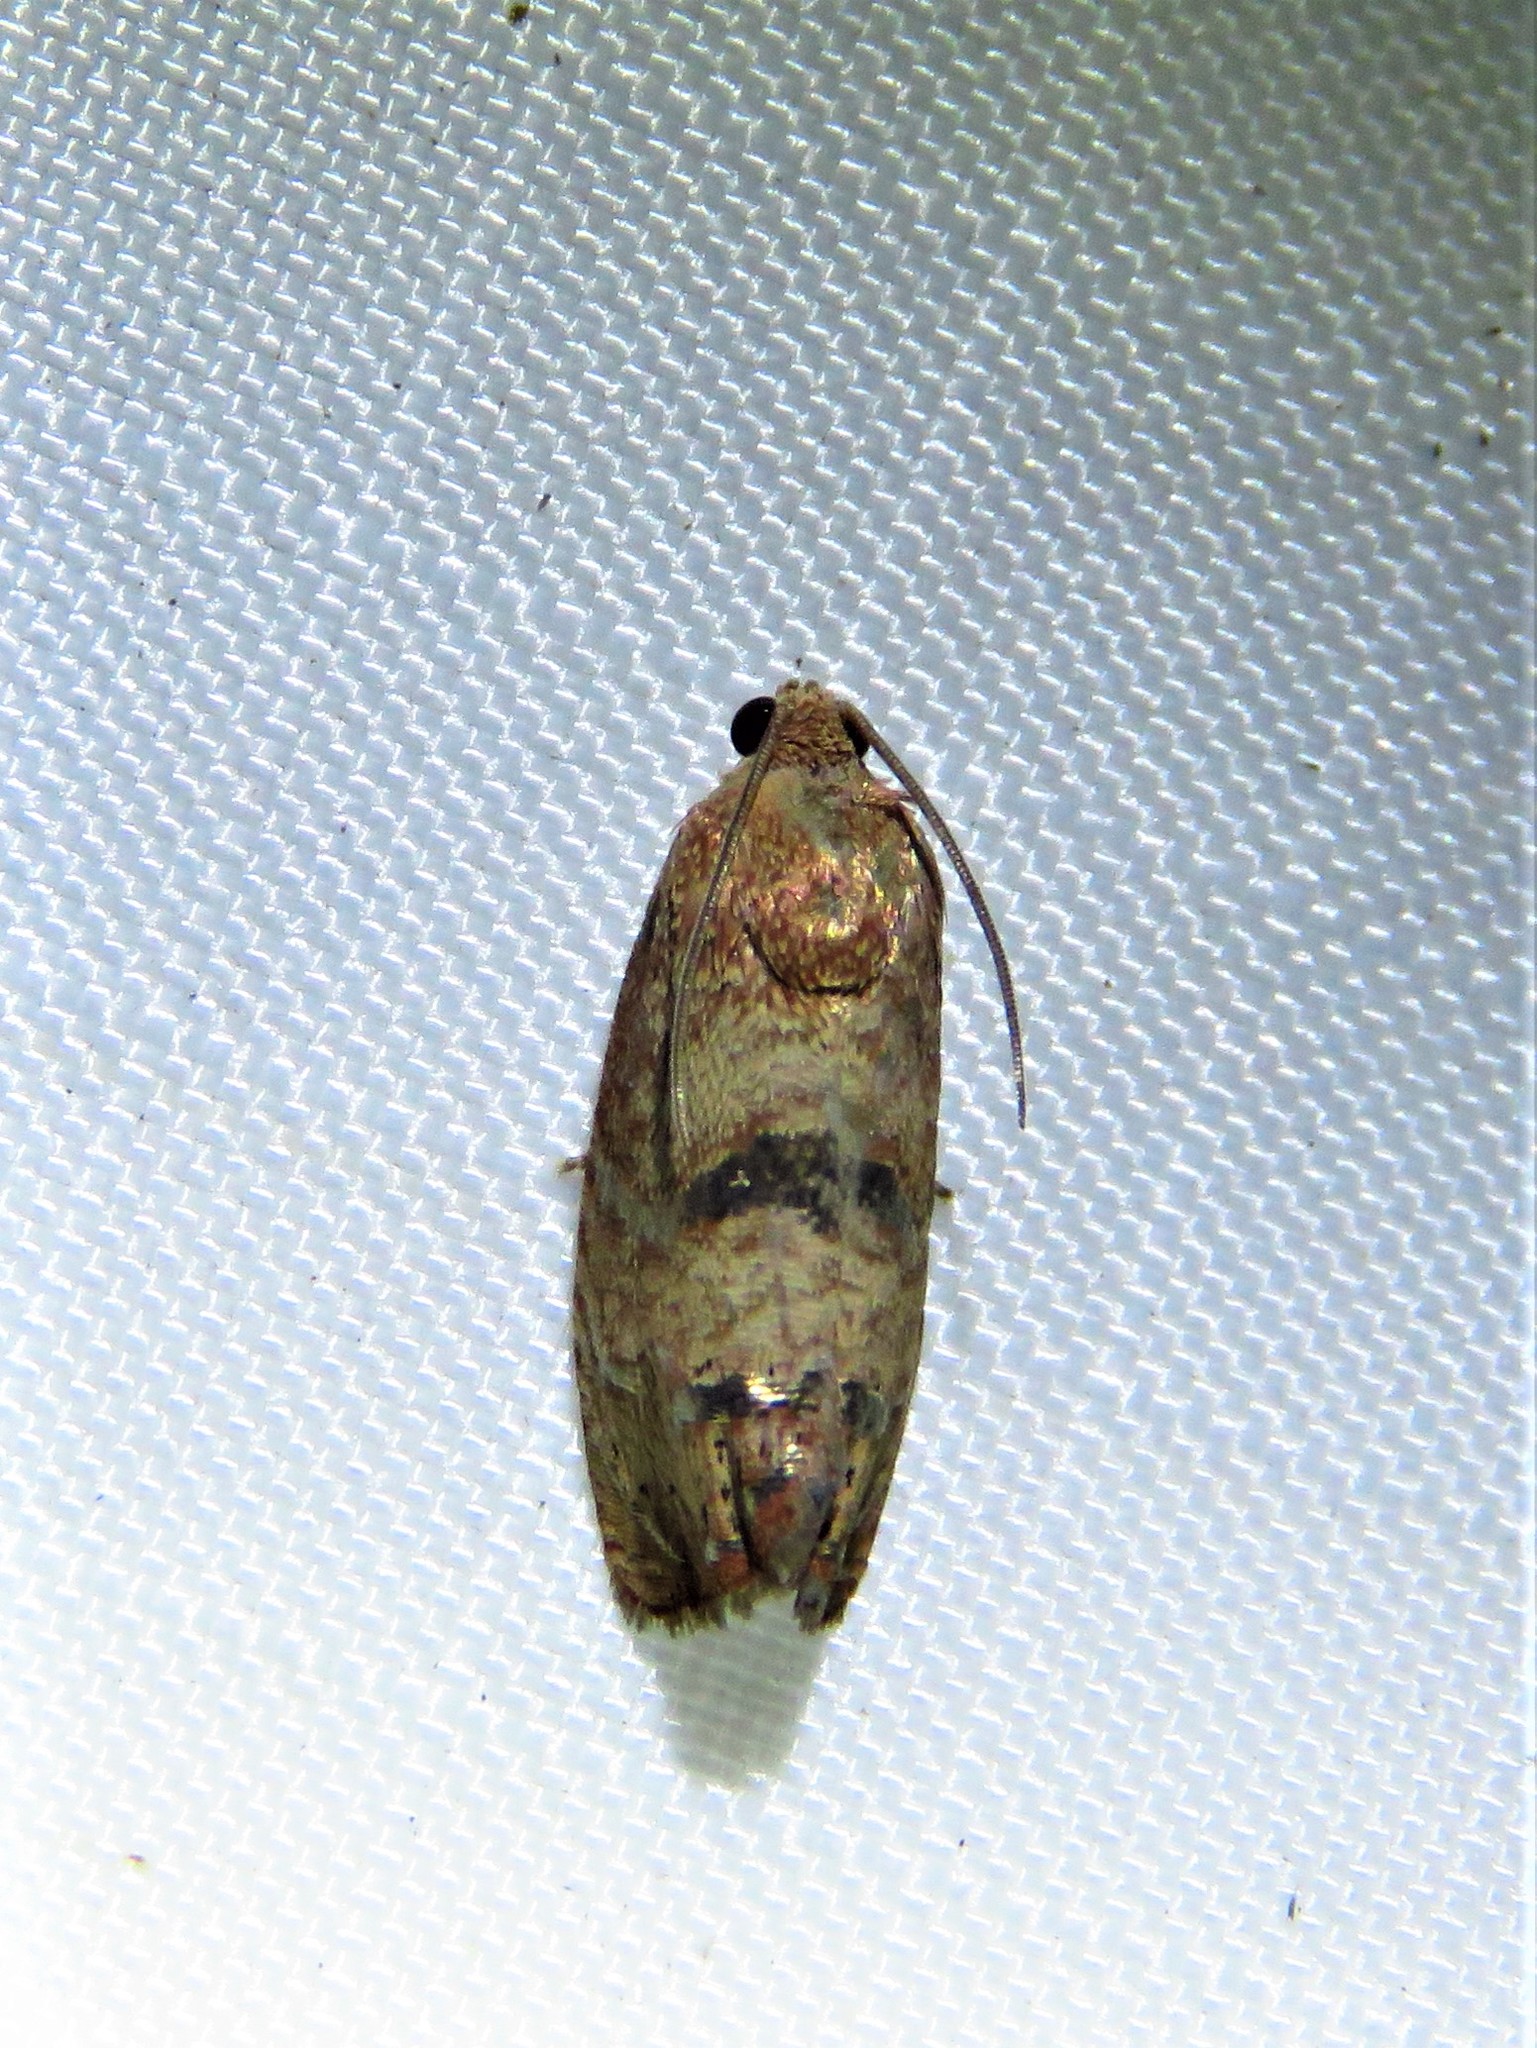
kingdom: Animalia
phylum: Arthropoda
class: Insecta
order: Lepidoptera
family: Tortricidae
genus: Cydia
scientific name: Cydia latiferreana
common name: Filbertworm moth
